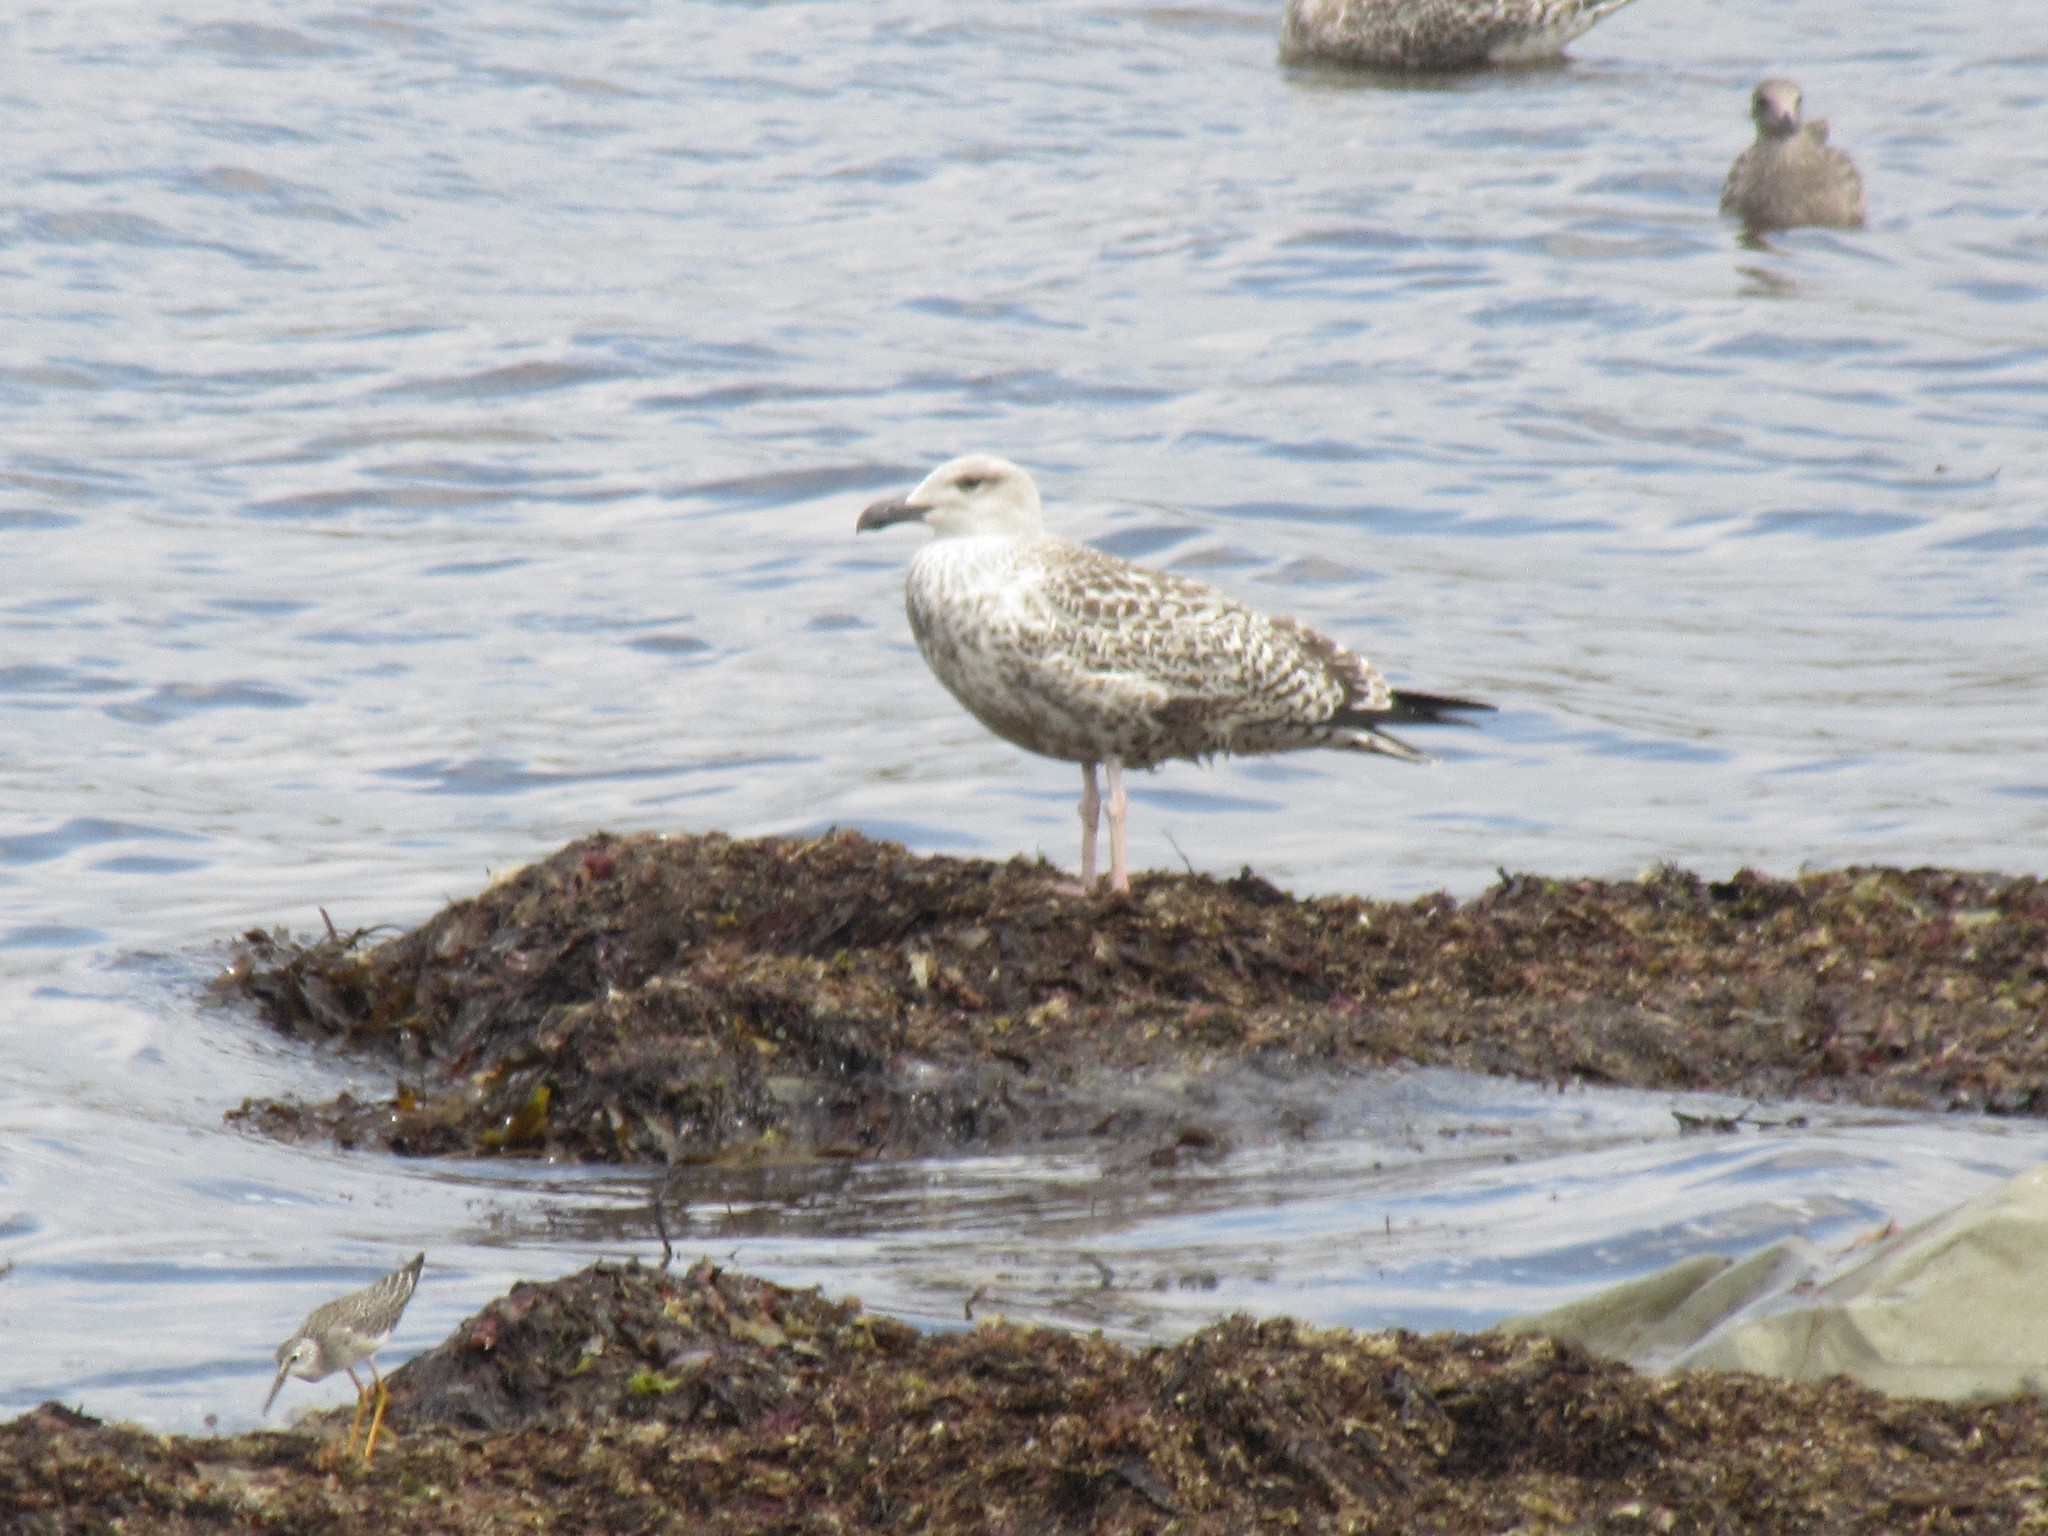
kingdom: Animalia
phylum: Chordata
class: Aves
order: Charadriiformes
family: Laridae
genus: Larus
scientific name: Larus marinus
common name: Great black-backed gull
